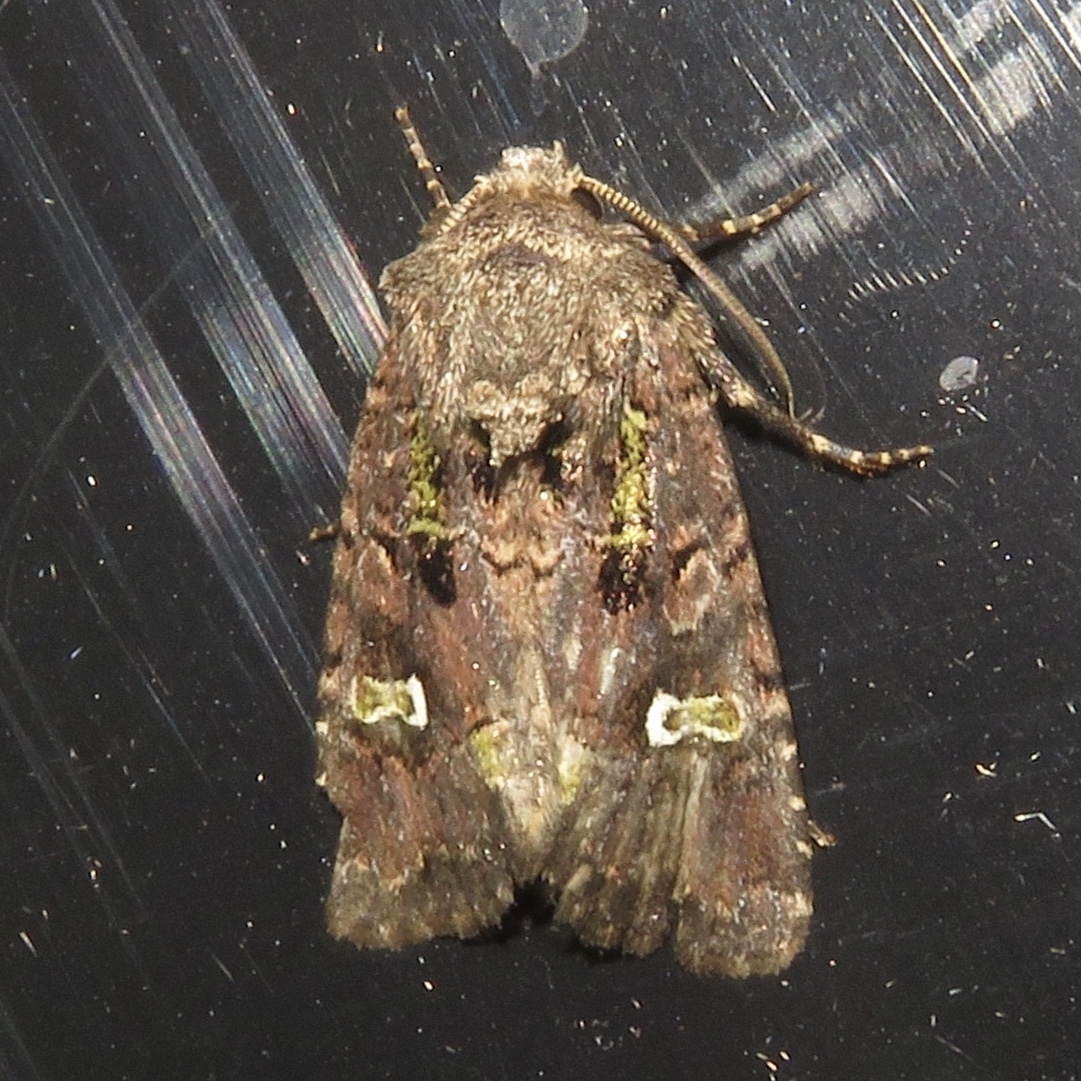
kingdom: Animalia
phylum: Arthropoda
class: Insecta
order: Lepidoptera
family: Noctuidae
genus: Lacinipolia
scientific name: Lacinipolia renigera
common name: Kidney-spotted minor
